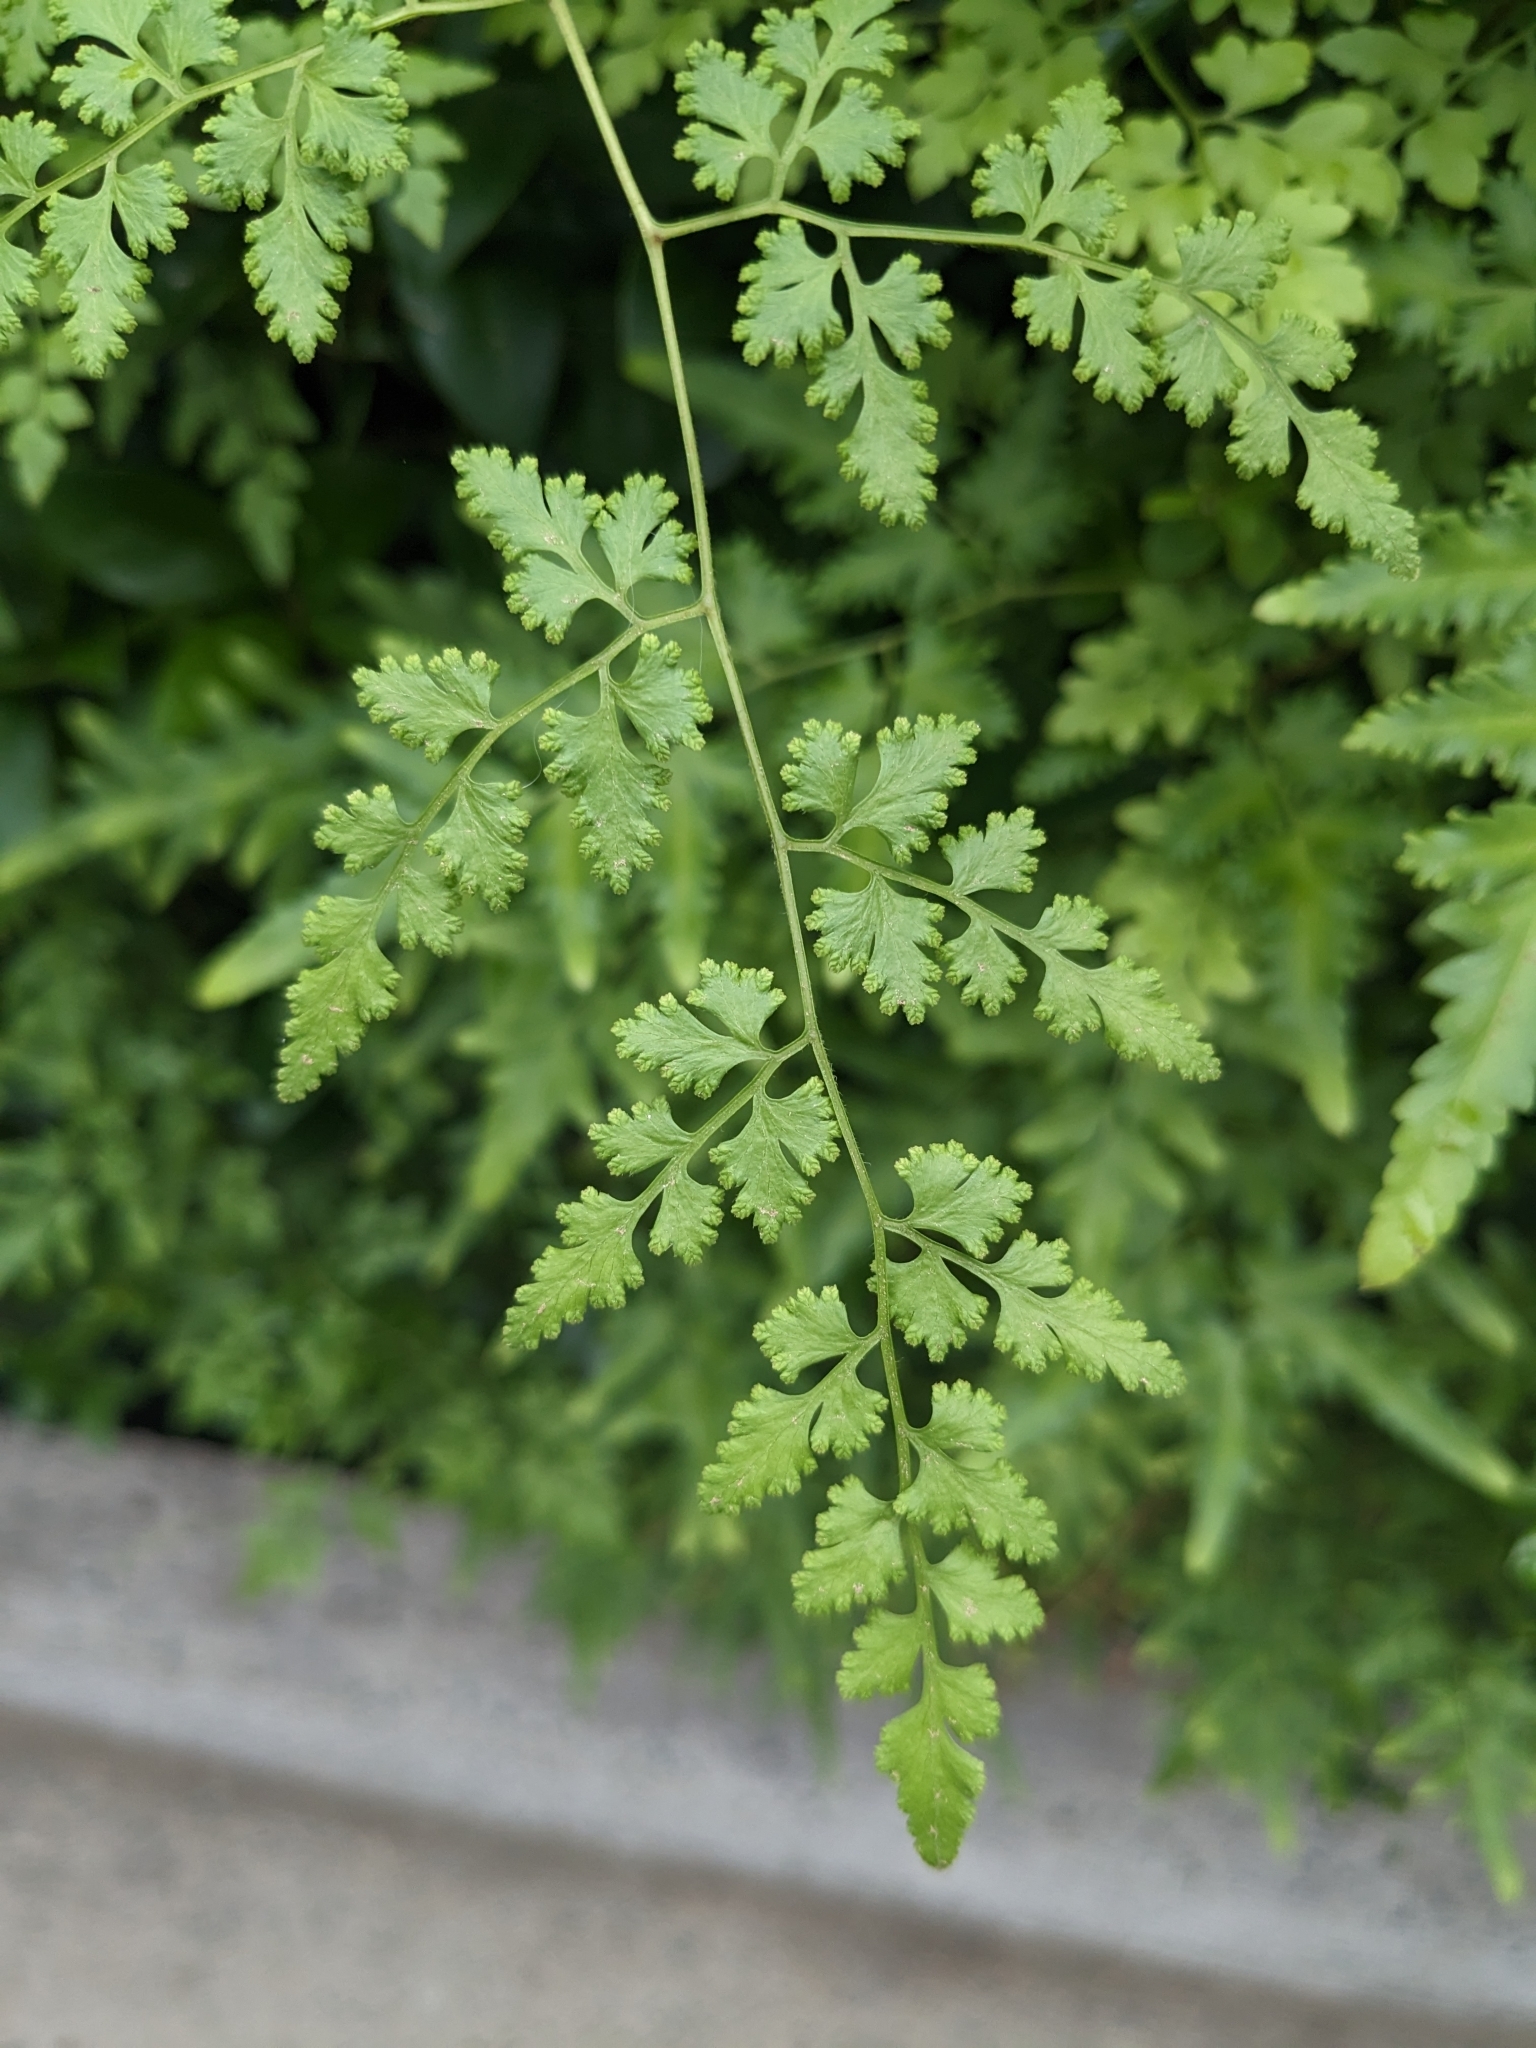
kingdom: Plantae
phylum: Tracheophyta
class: Polypodiopsida
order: Schizaeales
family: Lygodiaceae
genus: Lygodium
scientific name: Lygodium japonicum
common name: Japanese climbing fern
